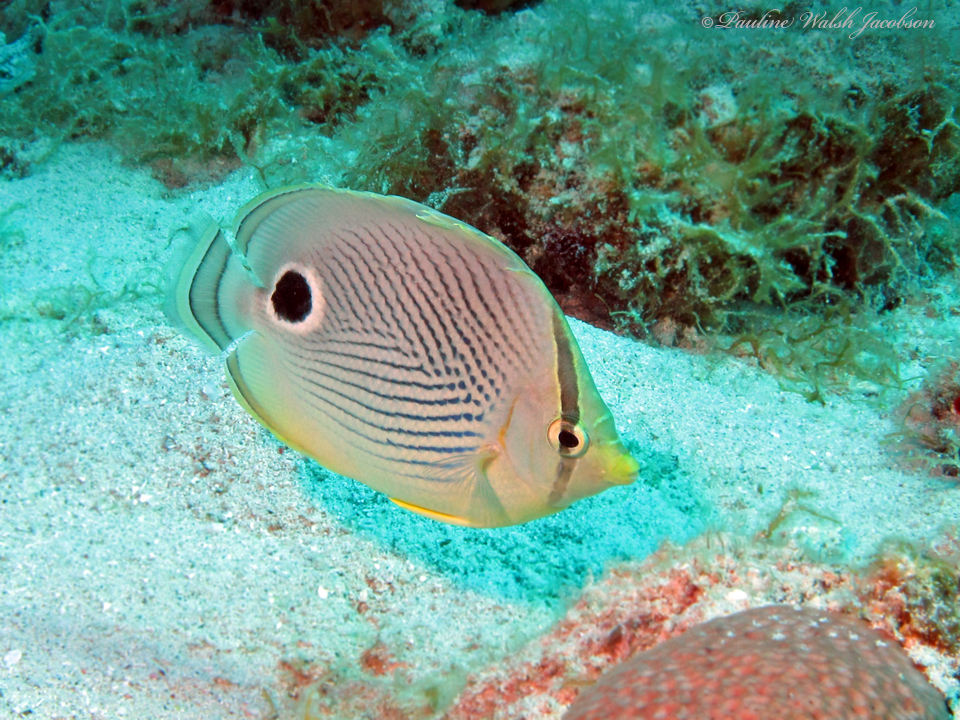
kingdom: Animalia
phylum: Chordata
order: Perciformes
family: Chaetodontidae
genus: Chaetodon
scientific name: Chaetodon capistratus
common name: Kete
